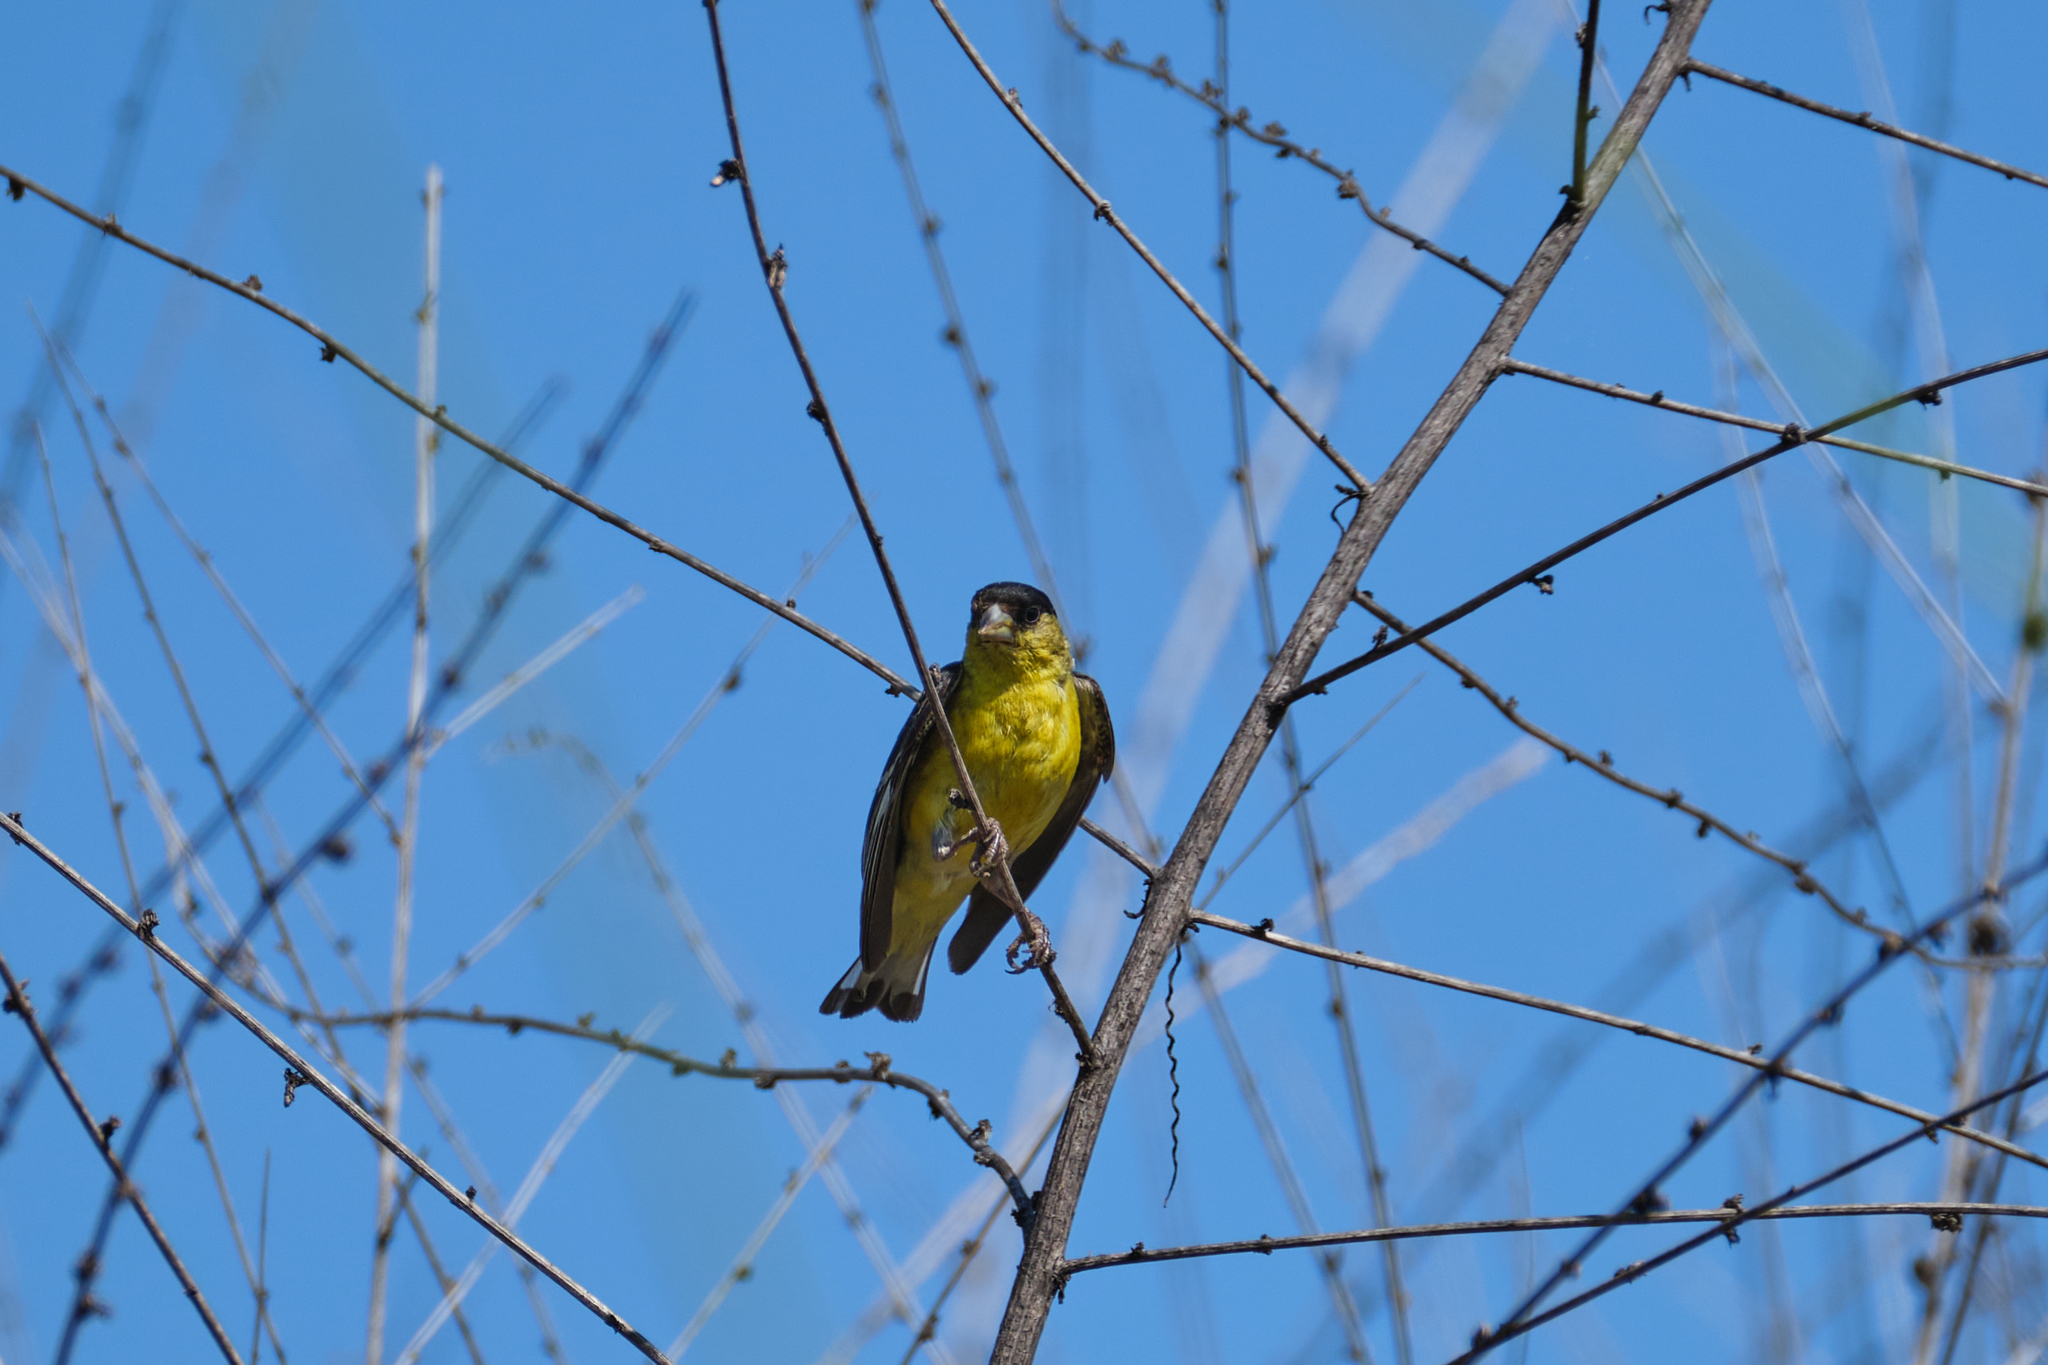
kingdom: Animalia
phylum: Chordata
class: Aves
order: Passeriformes
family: Fringillidae
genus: Spinus
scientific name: Spinus psaltria
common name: Lesser goldfinch
